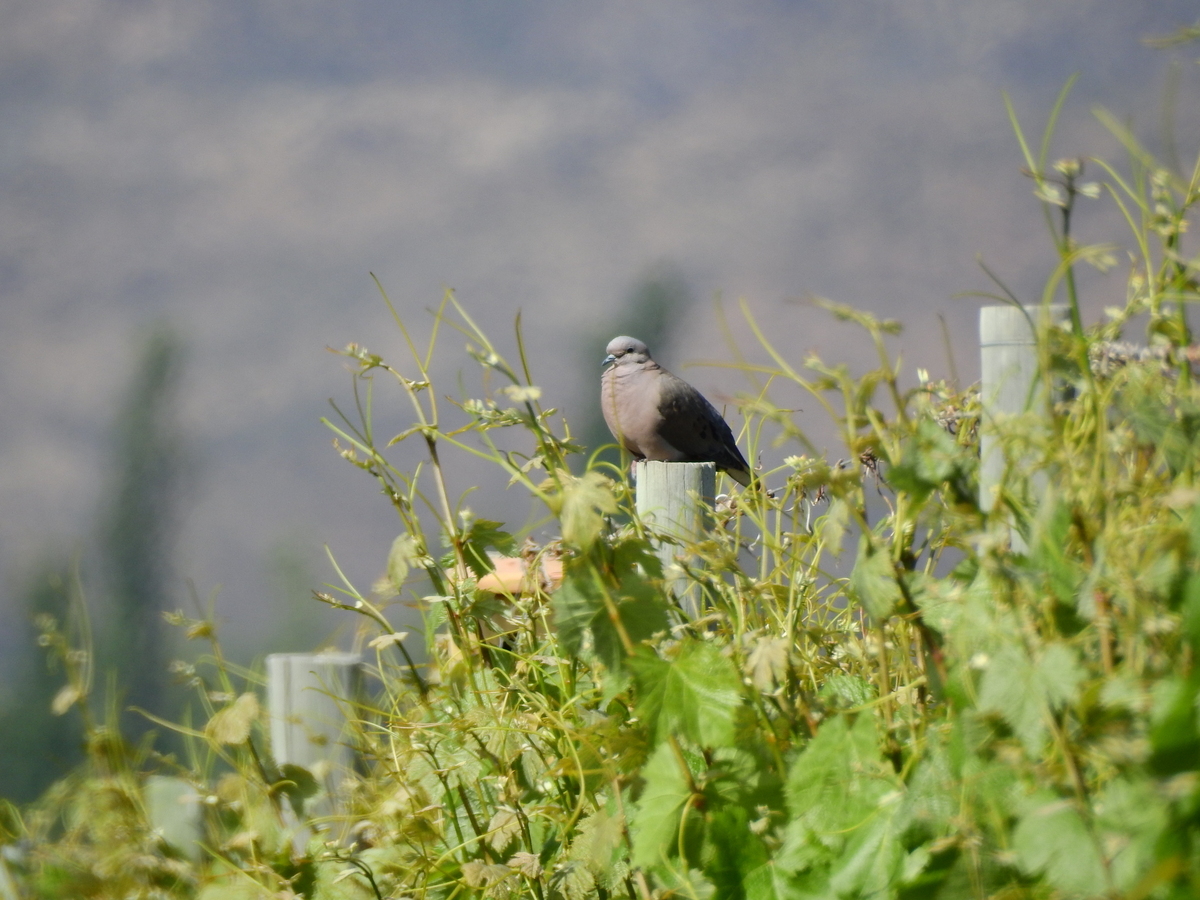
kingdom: Animalia
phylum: Chordata
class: Aves
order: Columbiformes
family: Columbidae
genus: Zenaida
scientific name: Zenaida auriculata
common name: Eared dove
